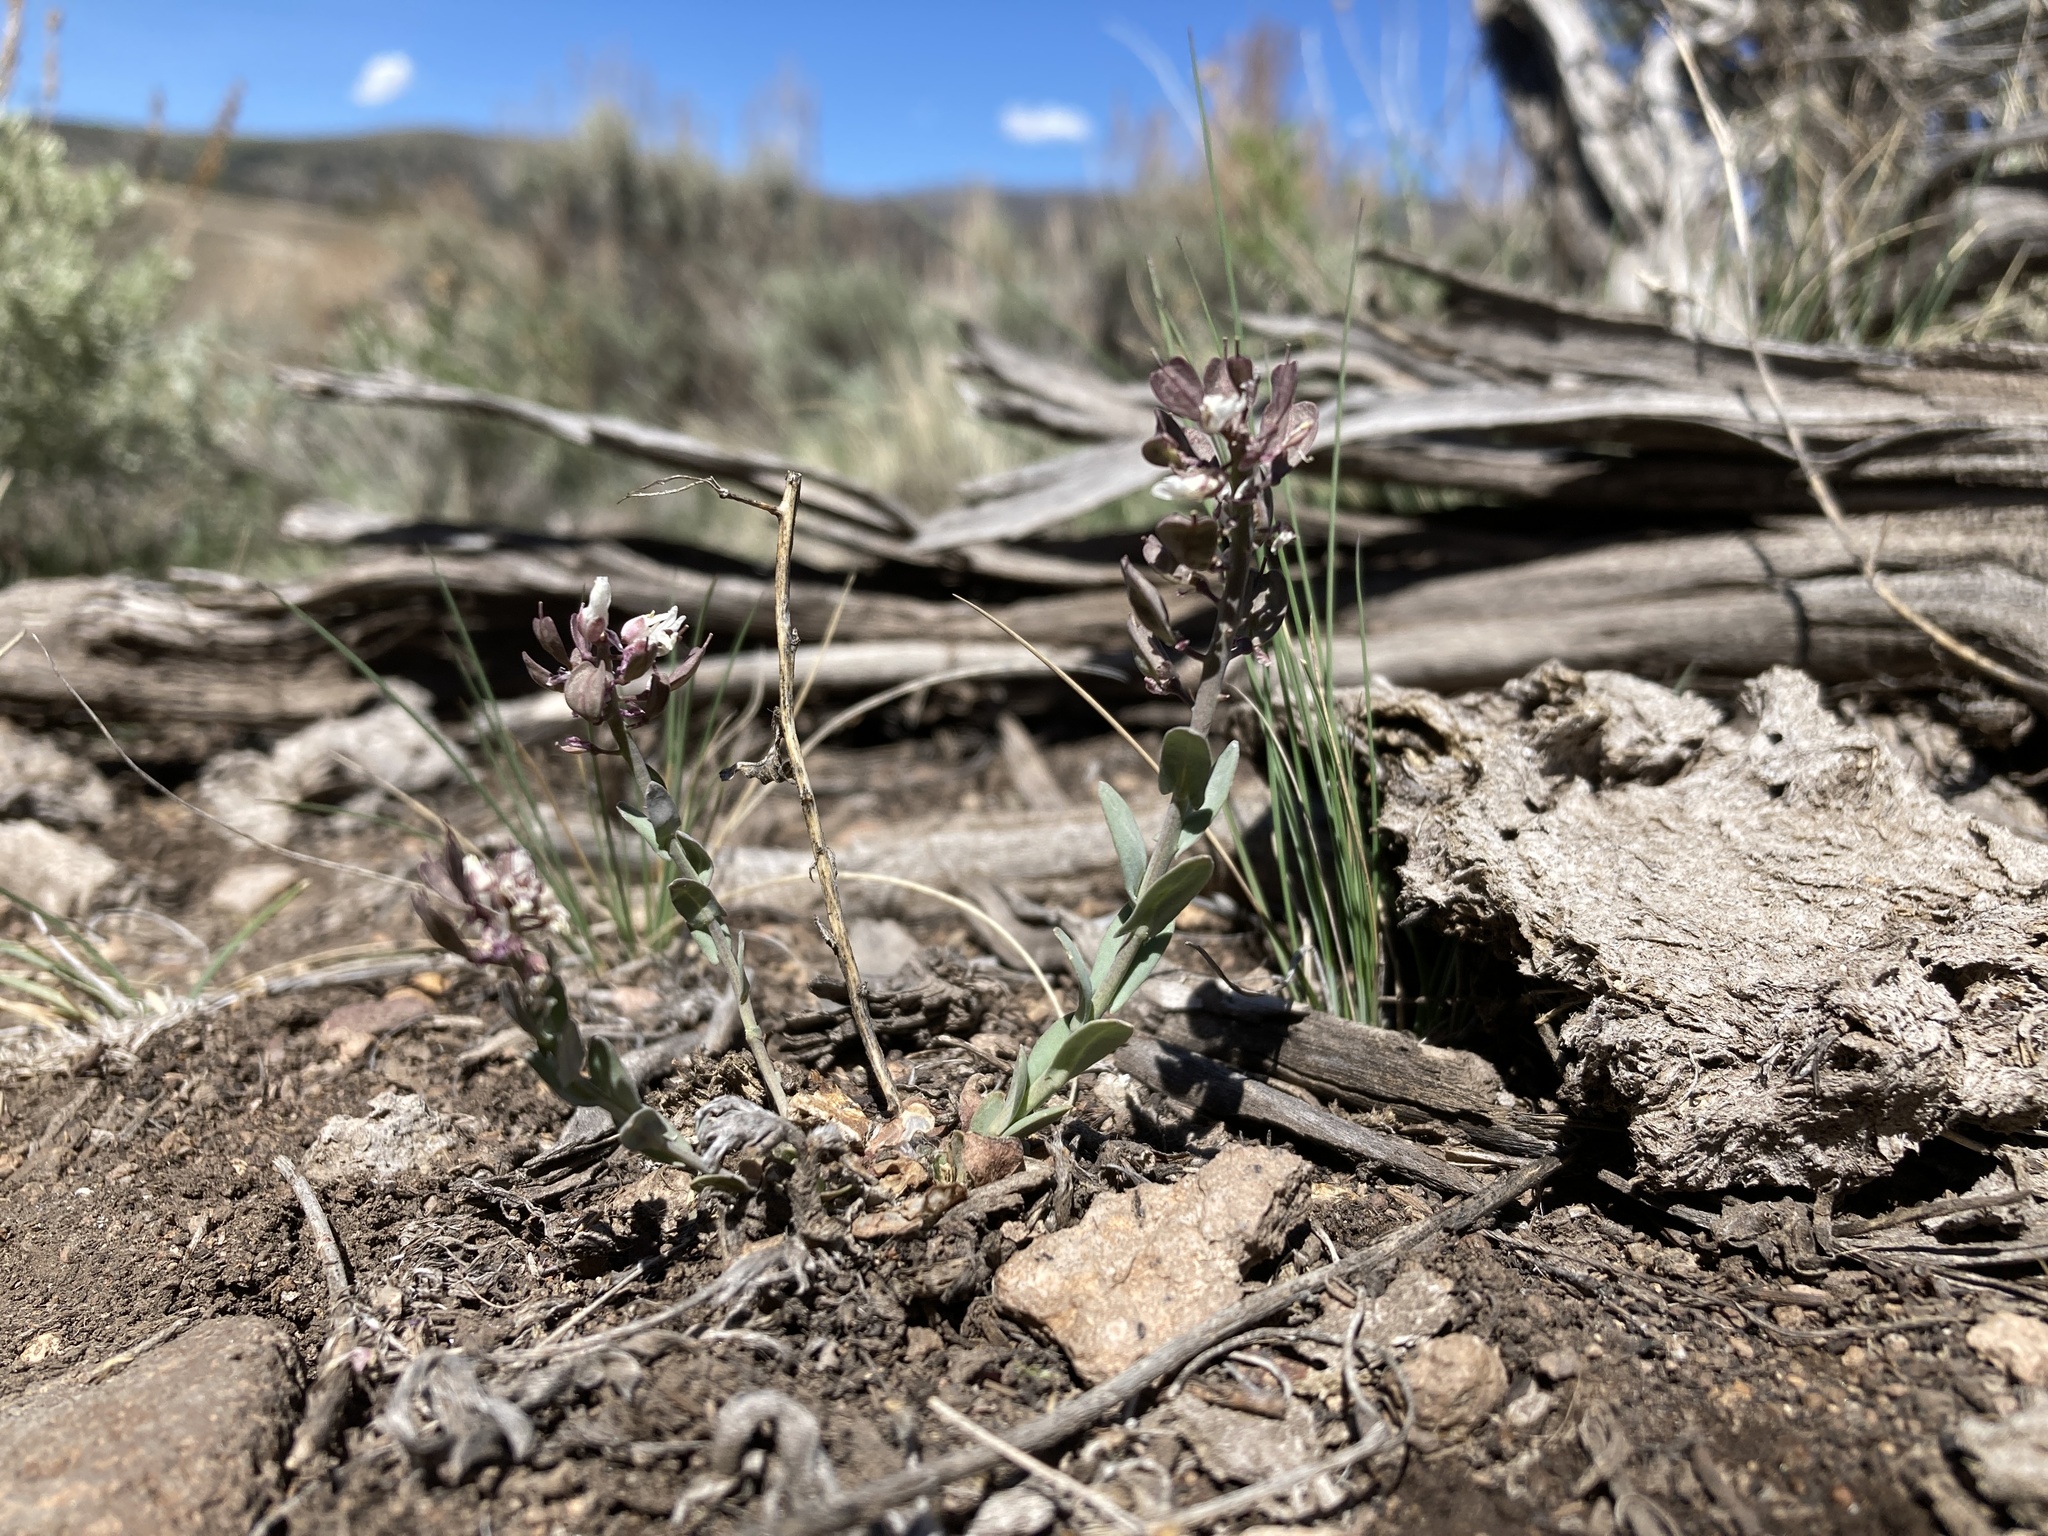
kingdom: Plantae
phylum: Tracheophyta
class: Magnoliopsida
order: Brassicales
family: Brassicaceae
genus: Noccaea
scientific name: Noccaea fendleri
